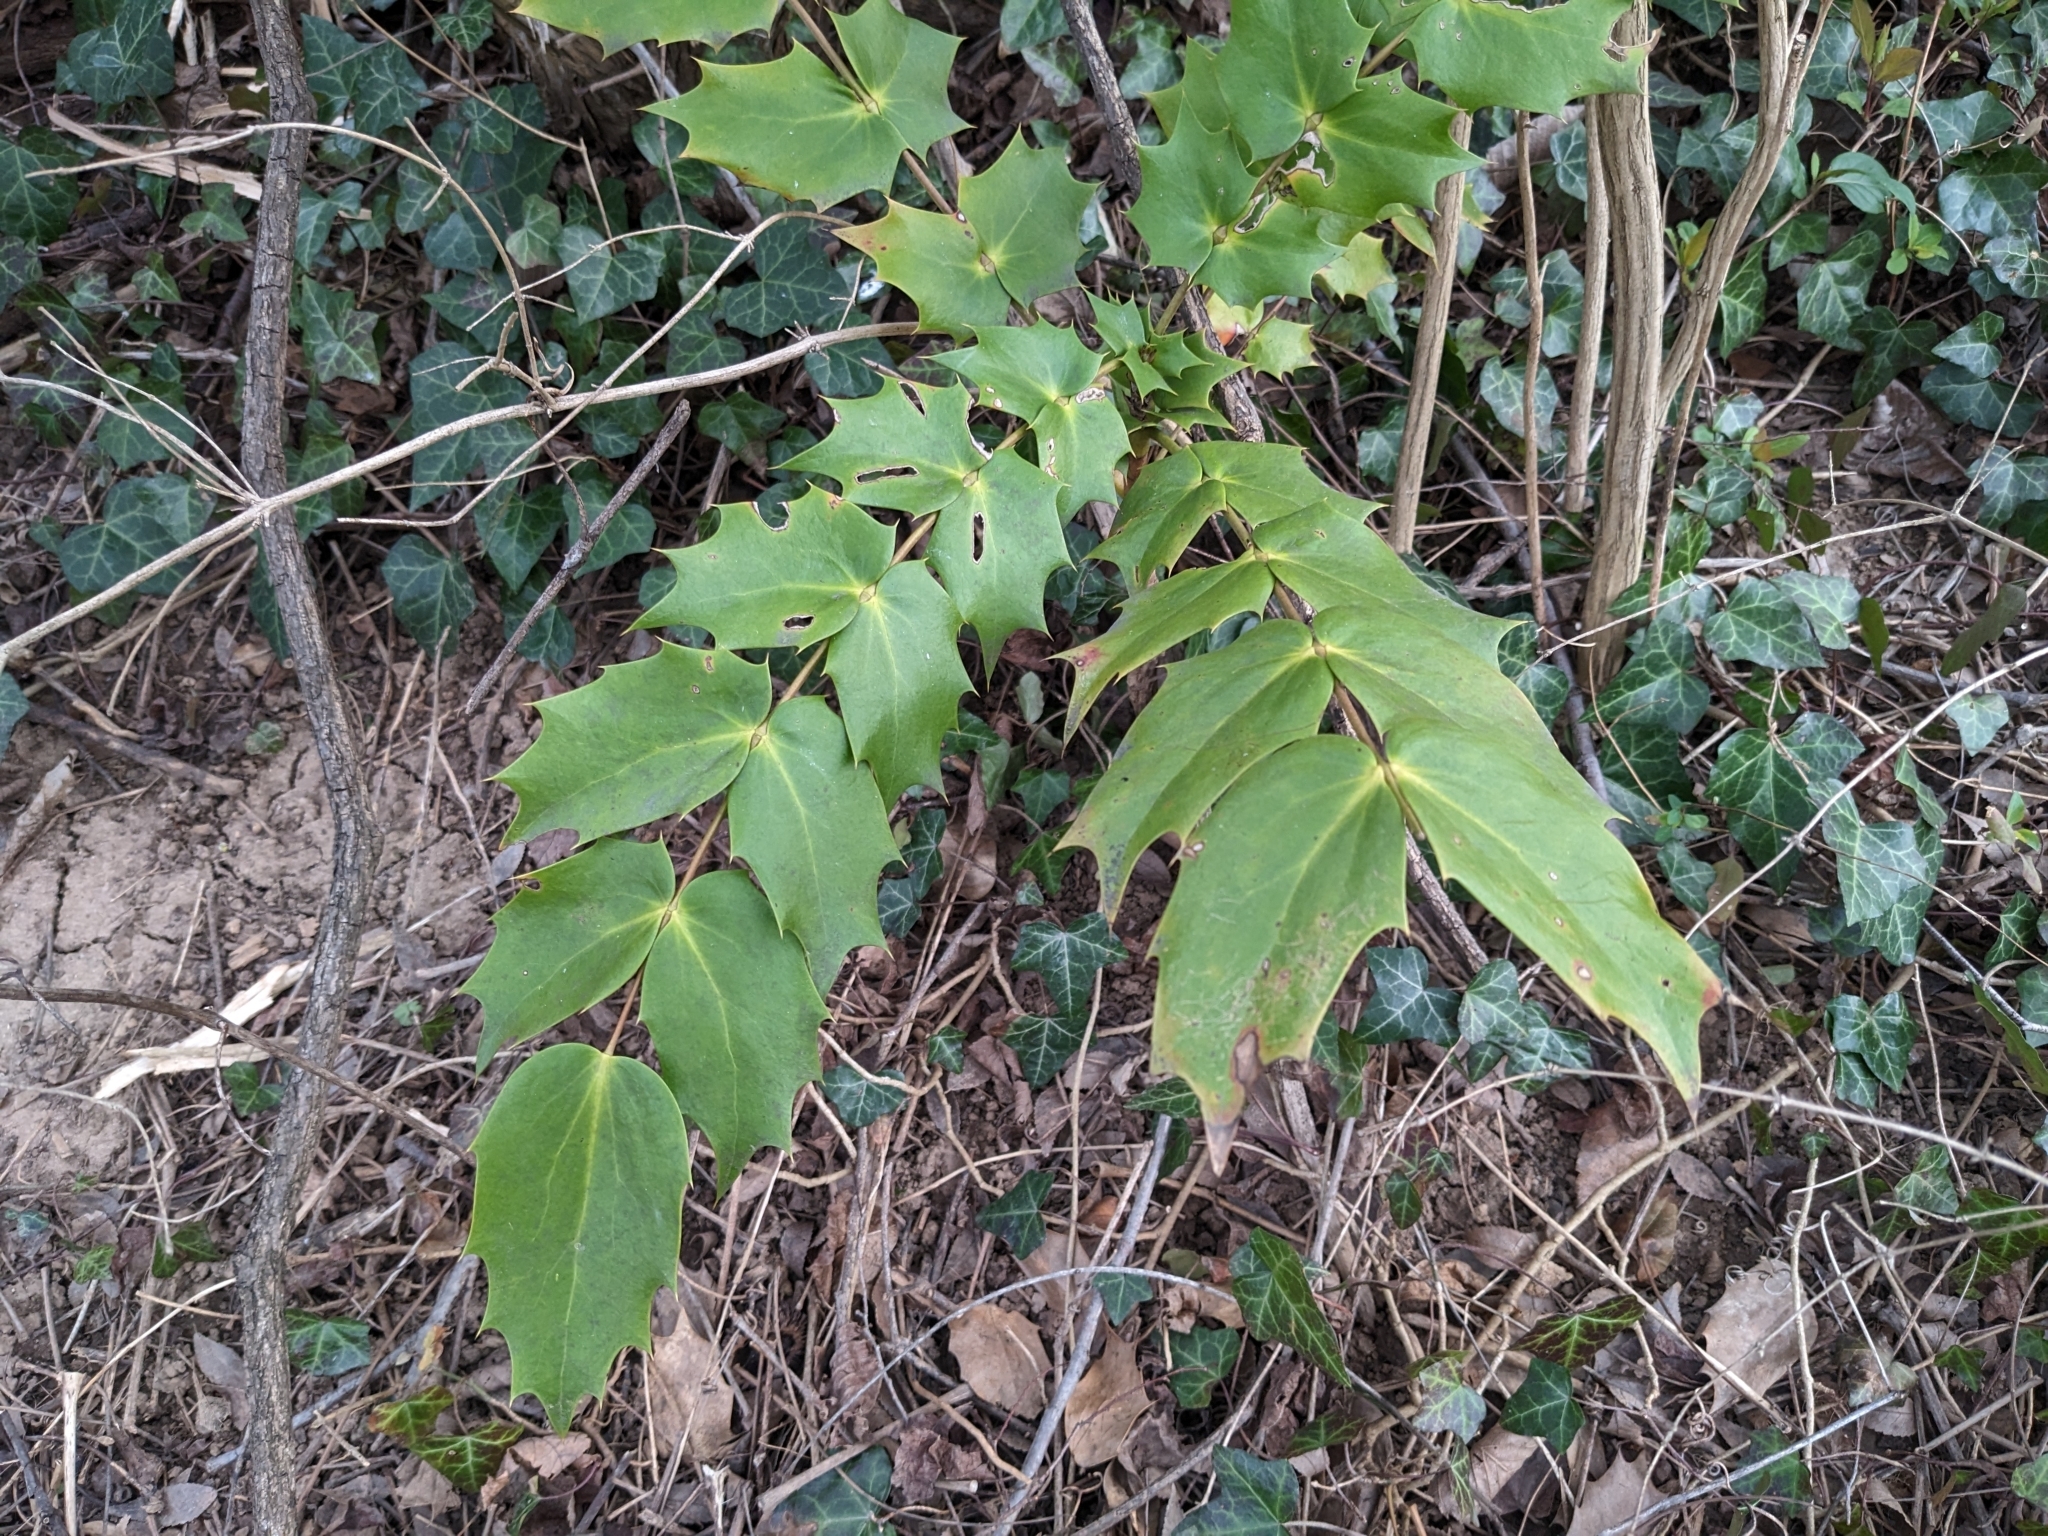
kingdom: Plantae
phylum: Tracheophyta
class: Magnoliopsida
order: Ranunculales
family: Berberidaceae
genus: Mahonia
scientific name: Mahonia bealei
